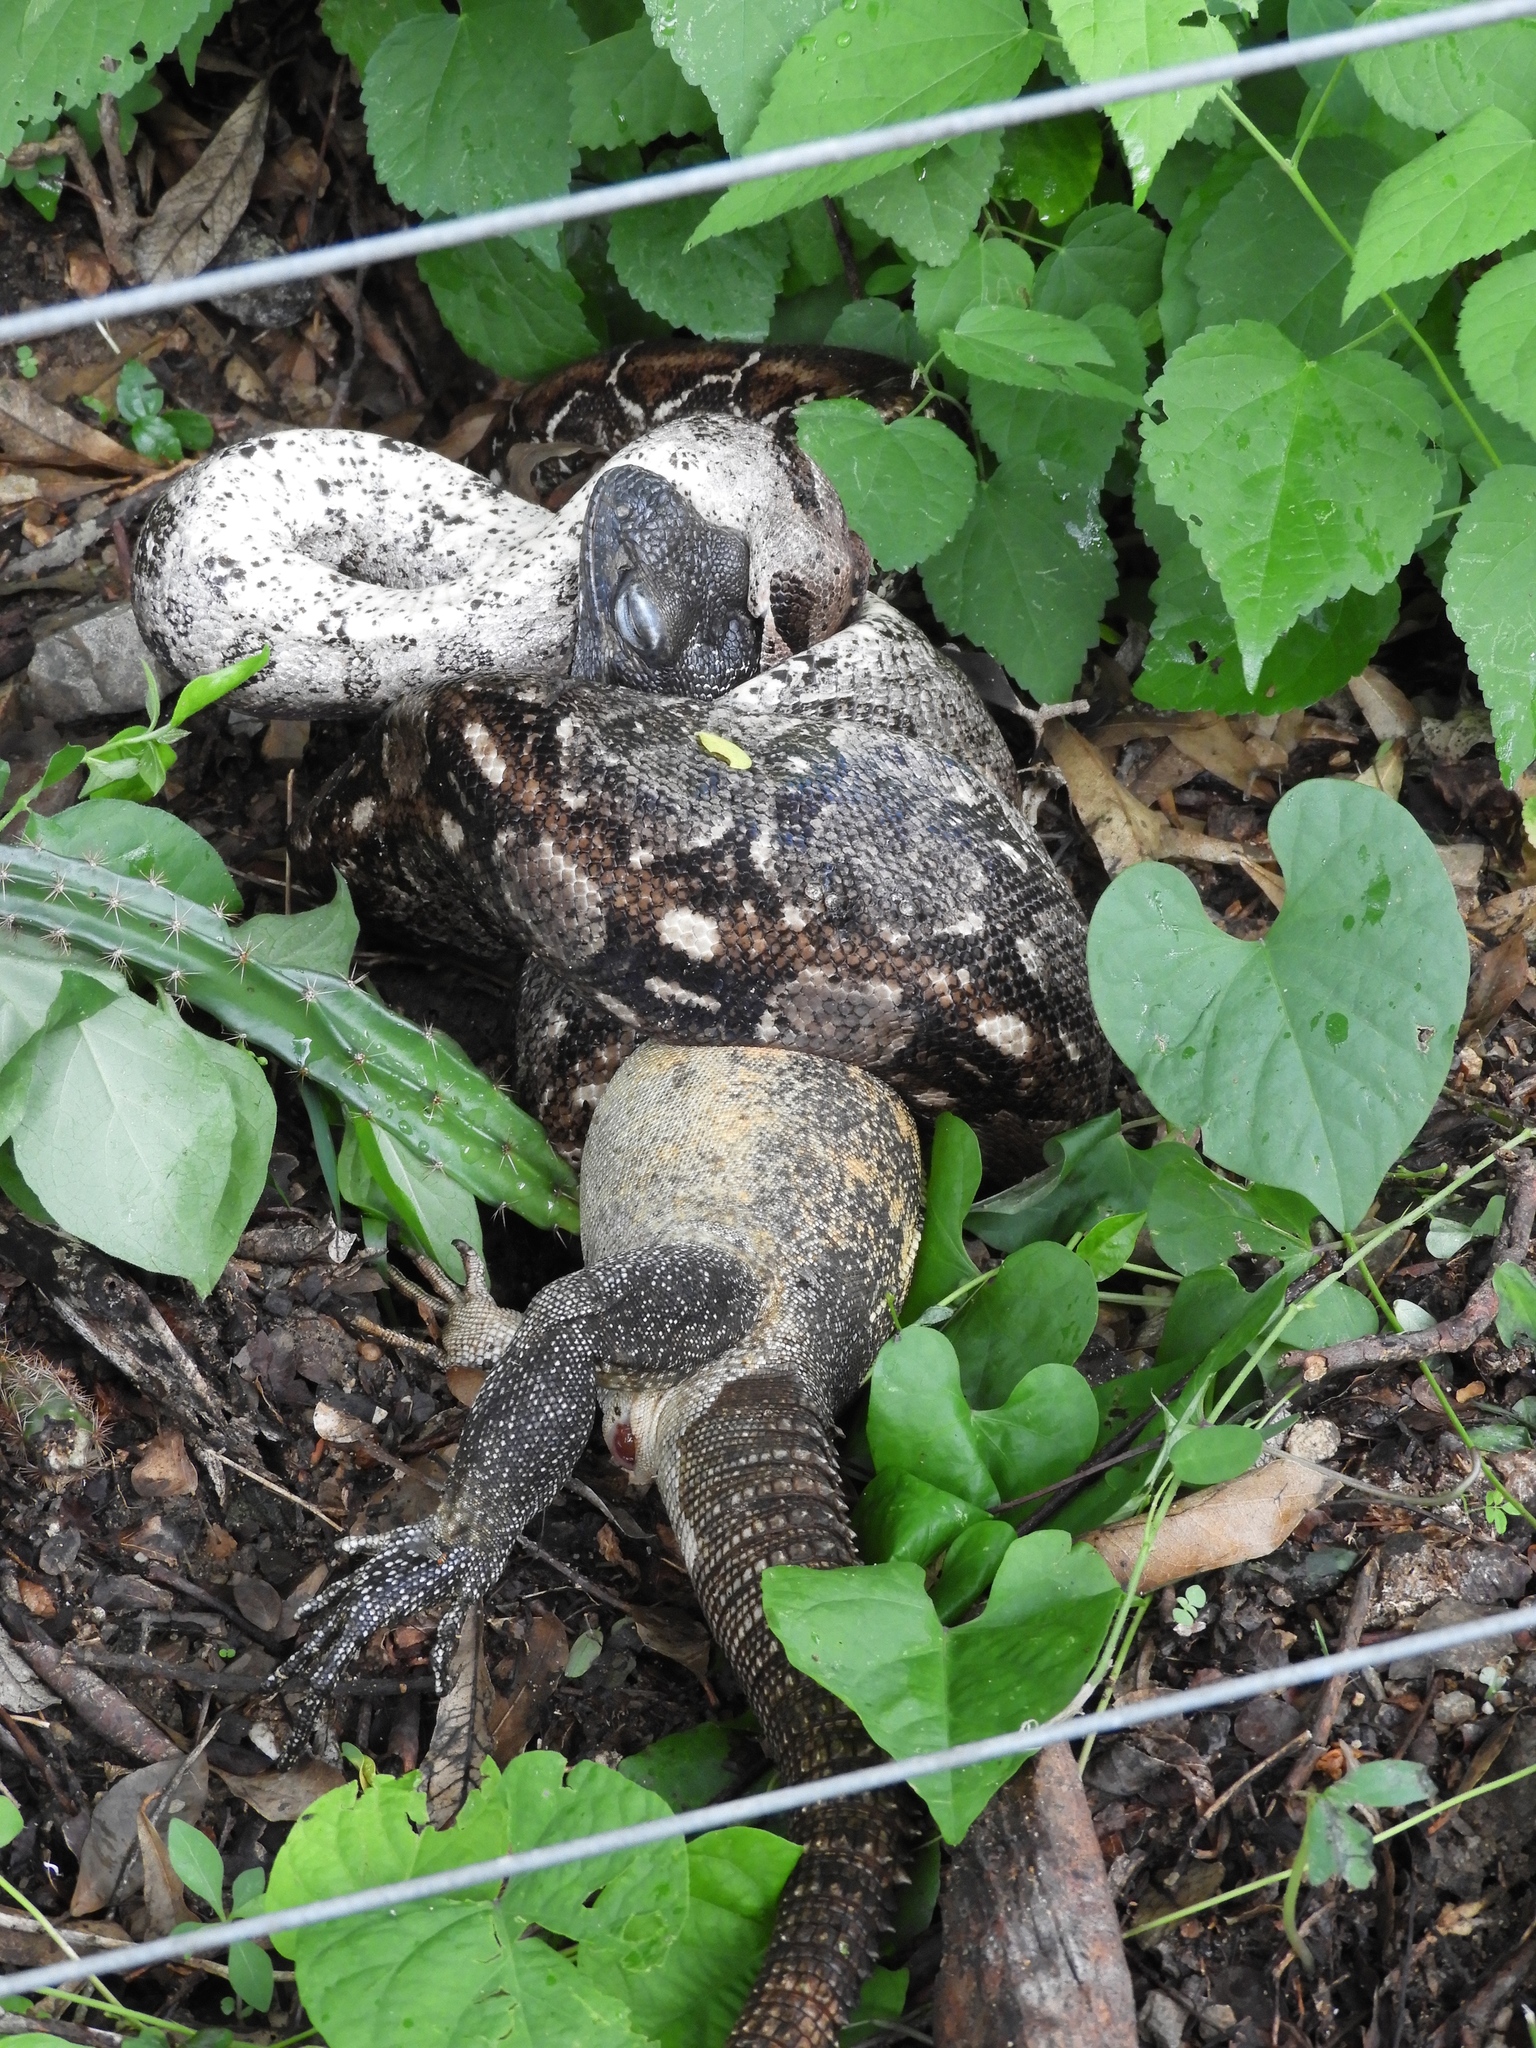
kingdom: Animalia
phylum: Chordata
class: Squamata
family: Boidae
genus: Boa
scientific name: Boa
